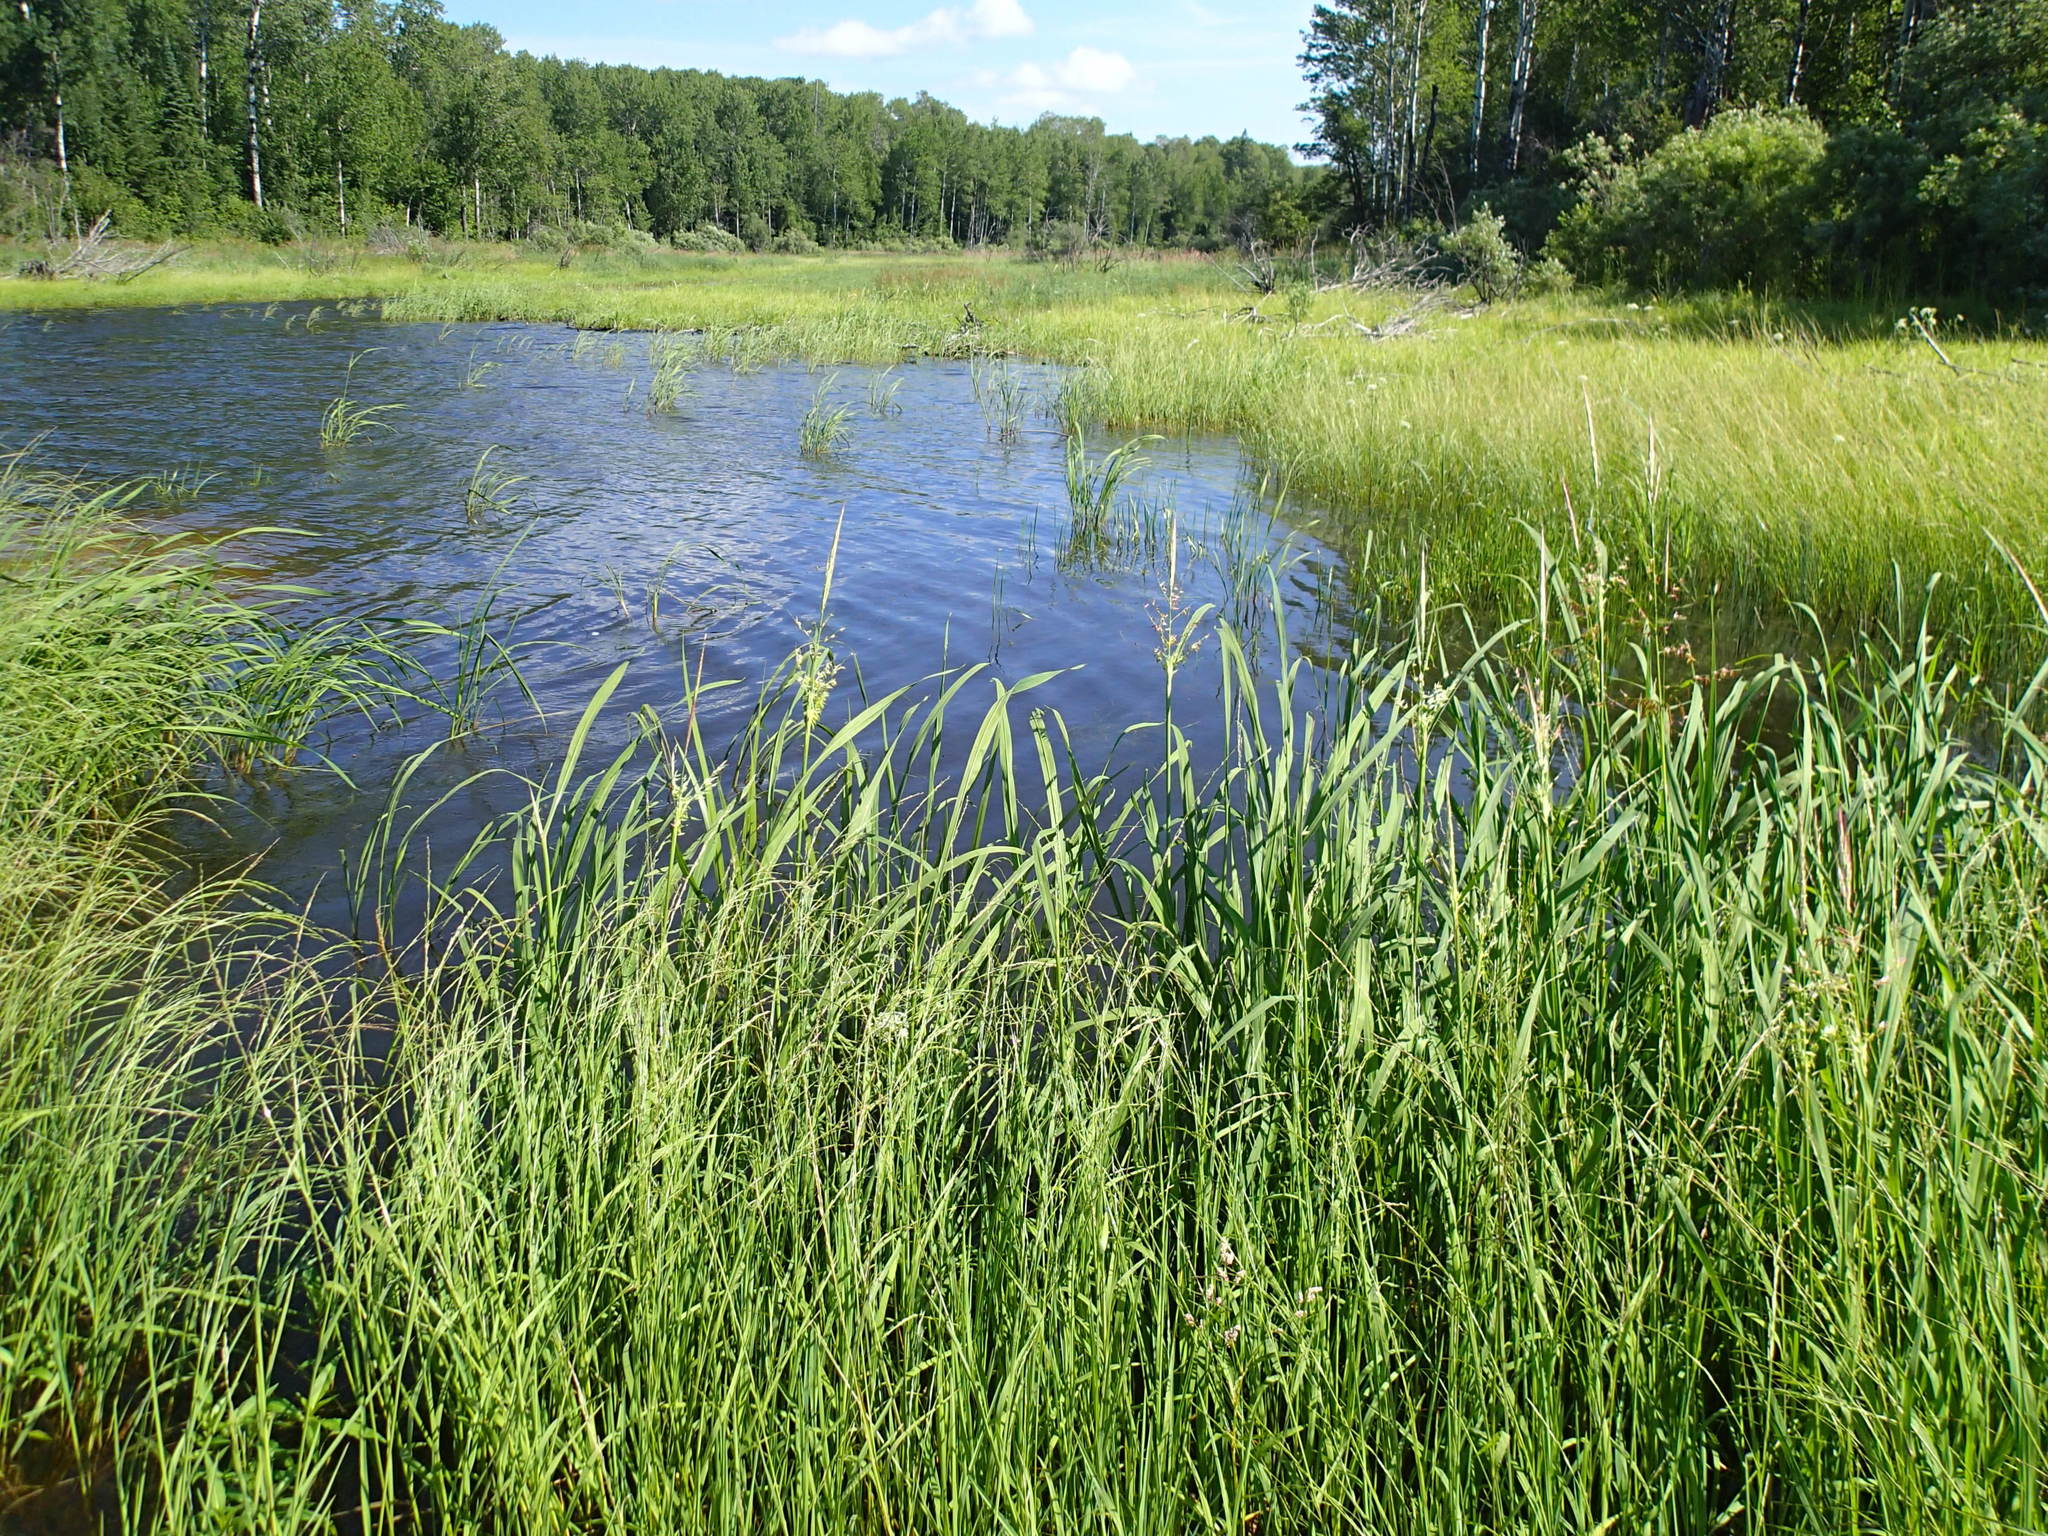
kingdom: Plantae
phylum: Tracheophyta
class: Liliopsida
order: Poales
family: Poaceae
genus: Zizania
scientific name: Zizania palustris
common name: Northern wild rice
